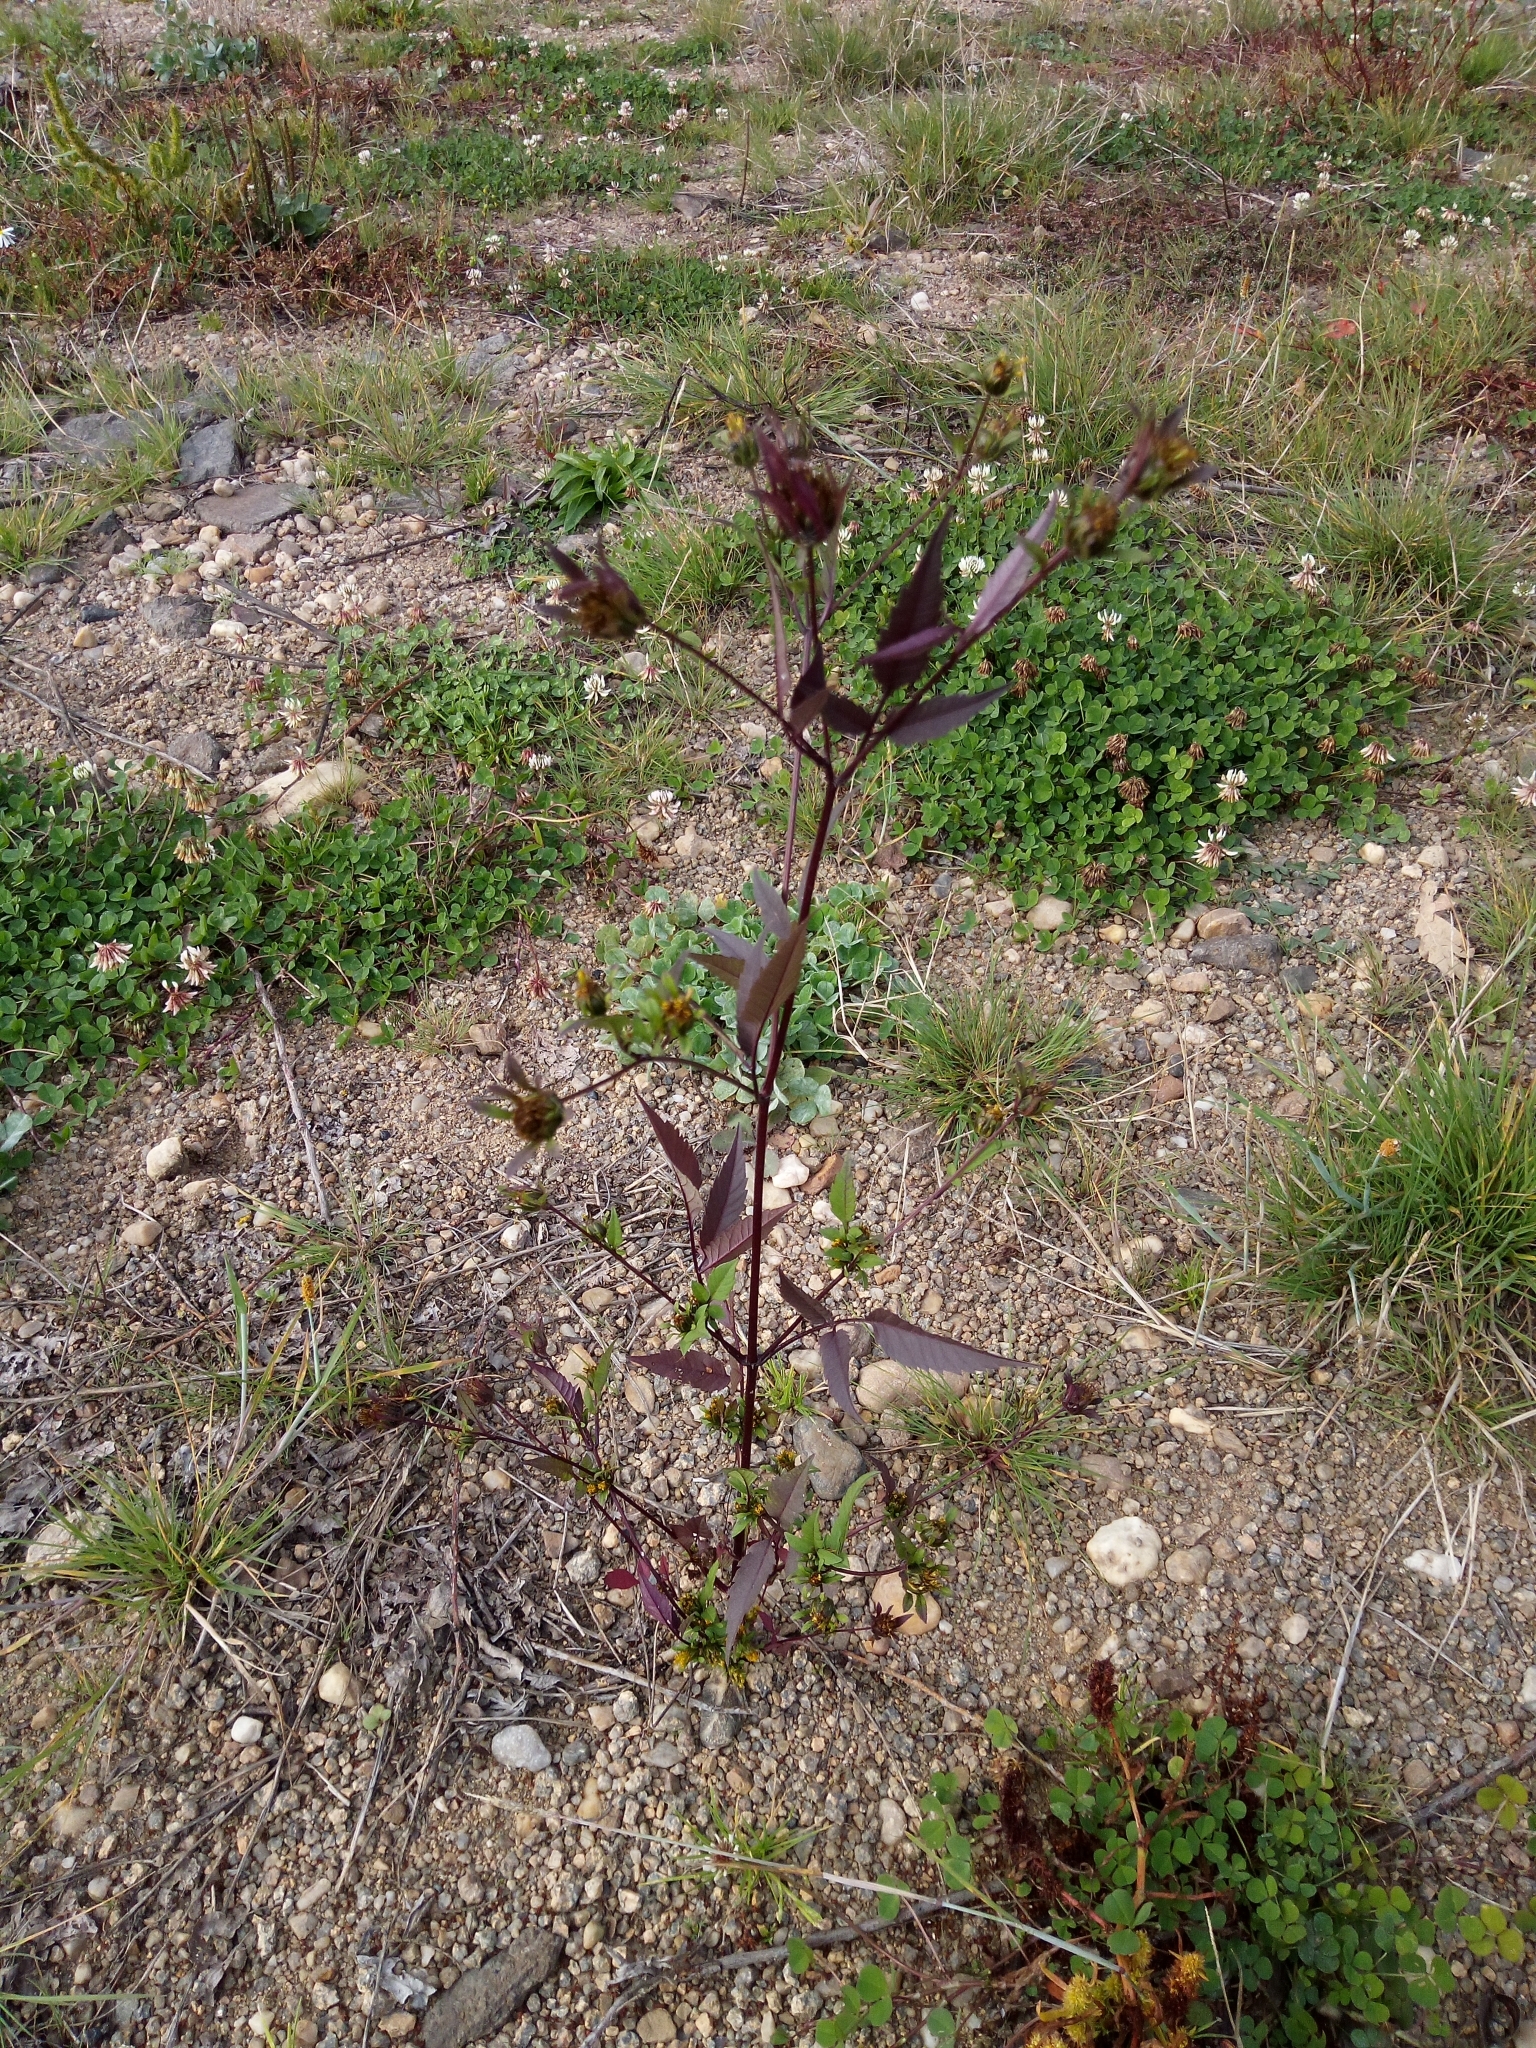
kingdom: Plantae
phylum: Tracheophyta
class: Magnoliopsida
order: Asterales
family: Asteraceae
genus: Bidens
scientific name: Bidens frondosa
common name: Beggarticks
